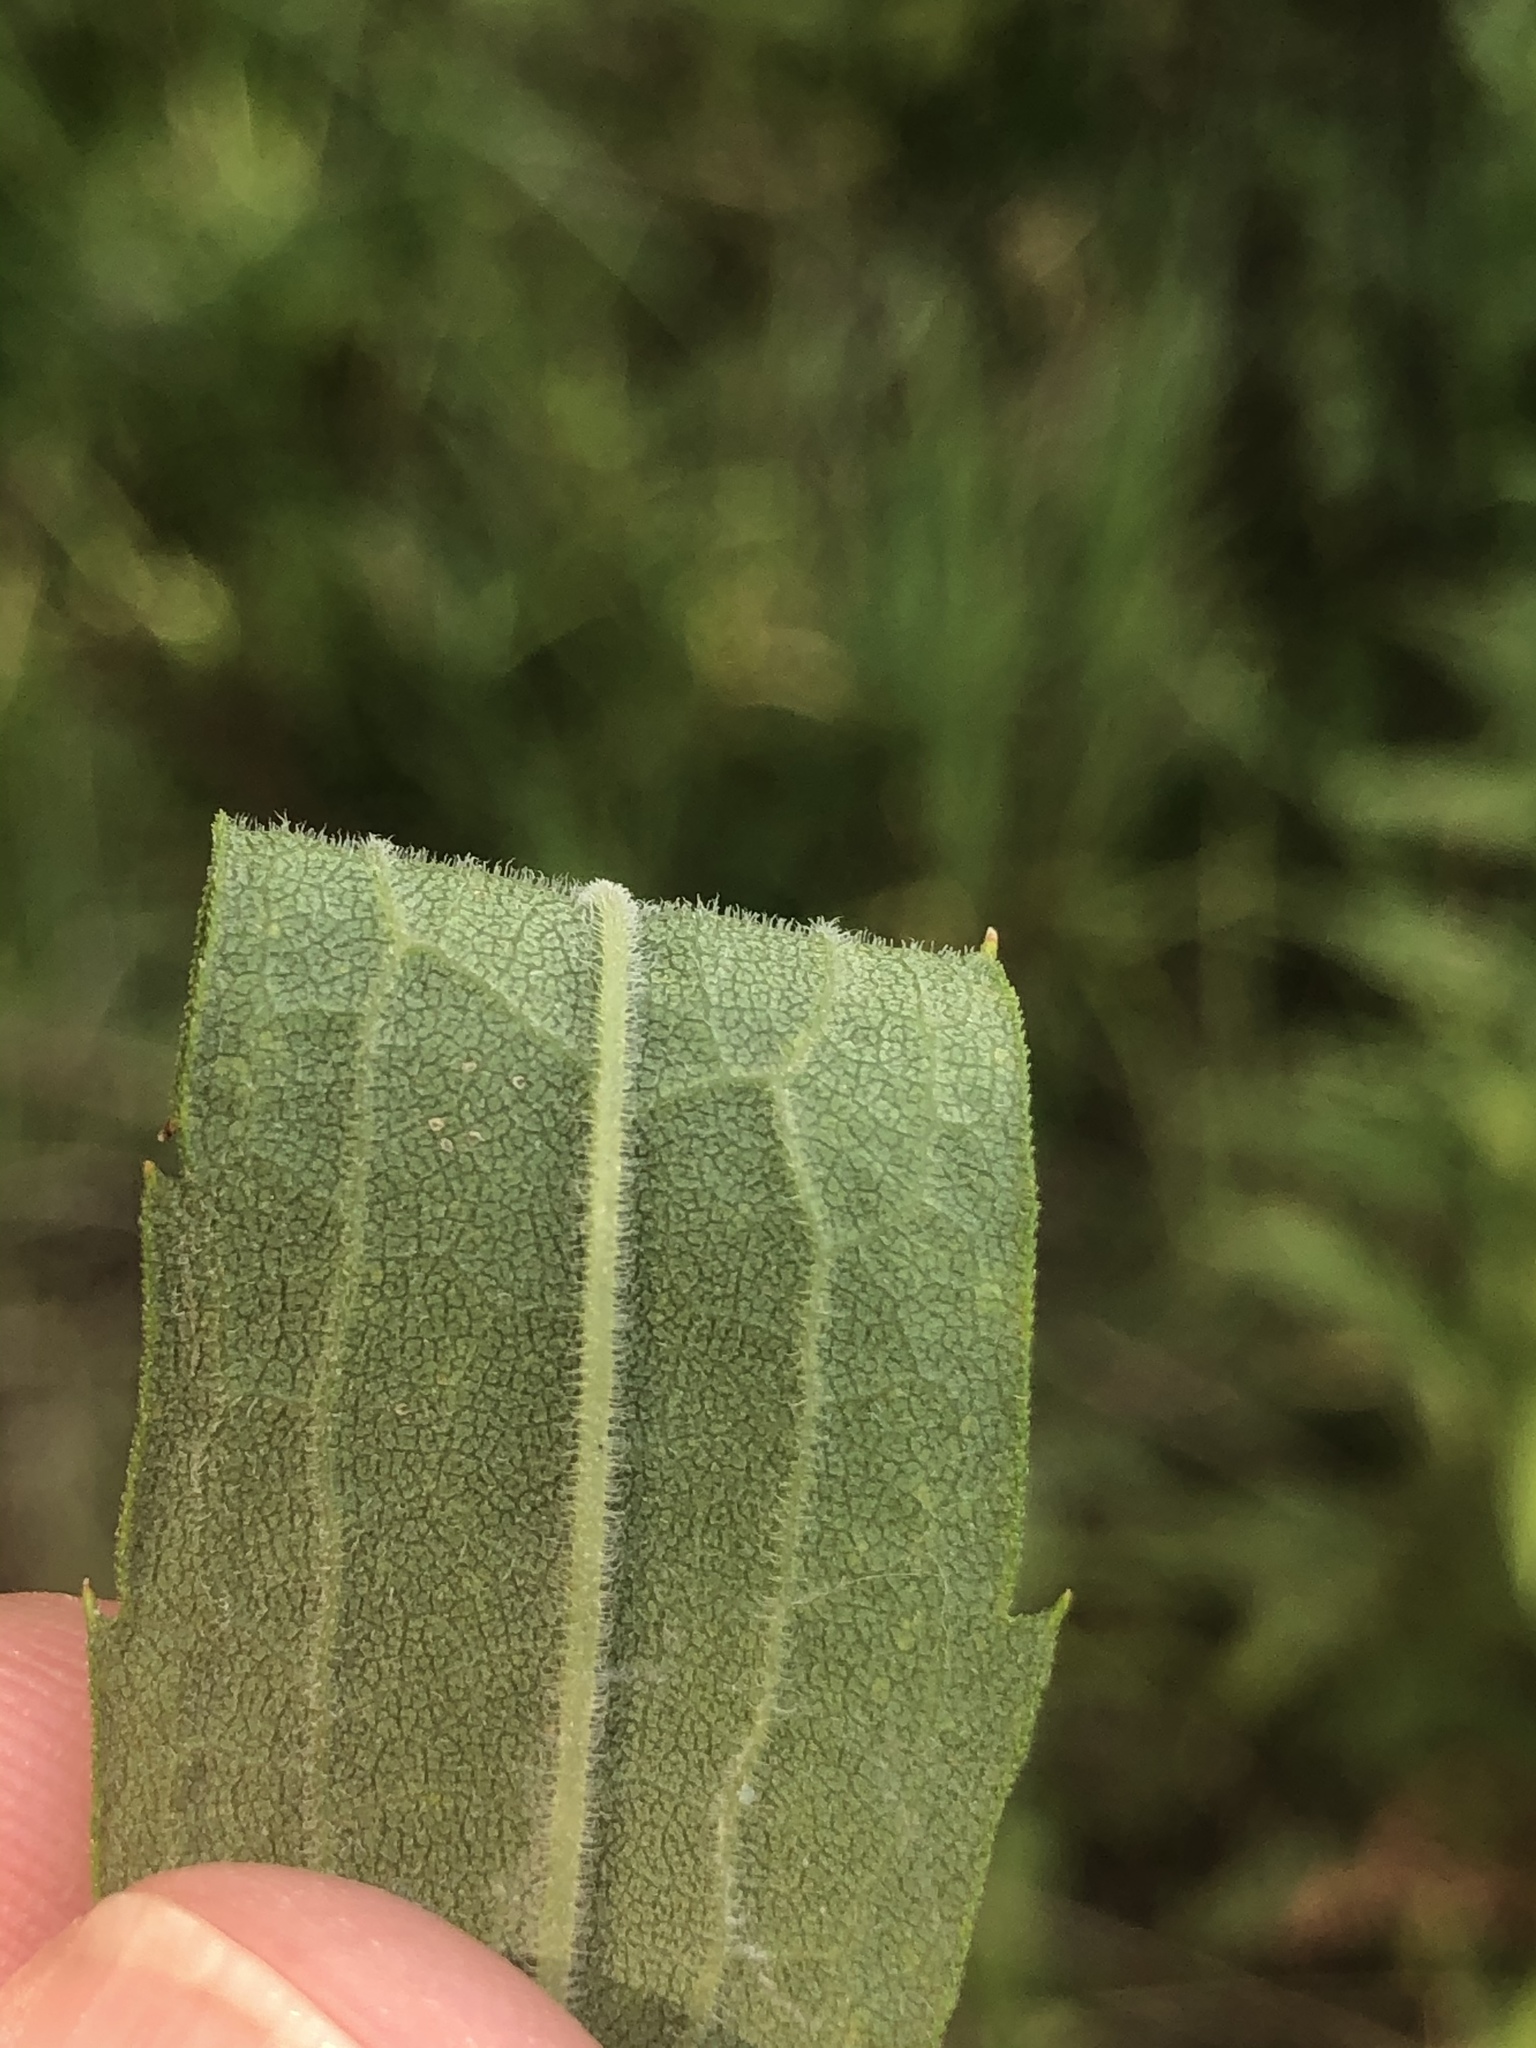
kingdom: Plantae
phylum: Tracheophyta
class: Magnoliopsida
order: Asterales
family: Asteraceae
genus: Solidago
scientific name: Solidago altissima
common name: Late goldenrod
